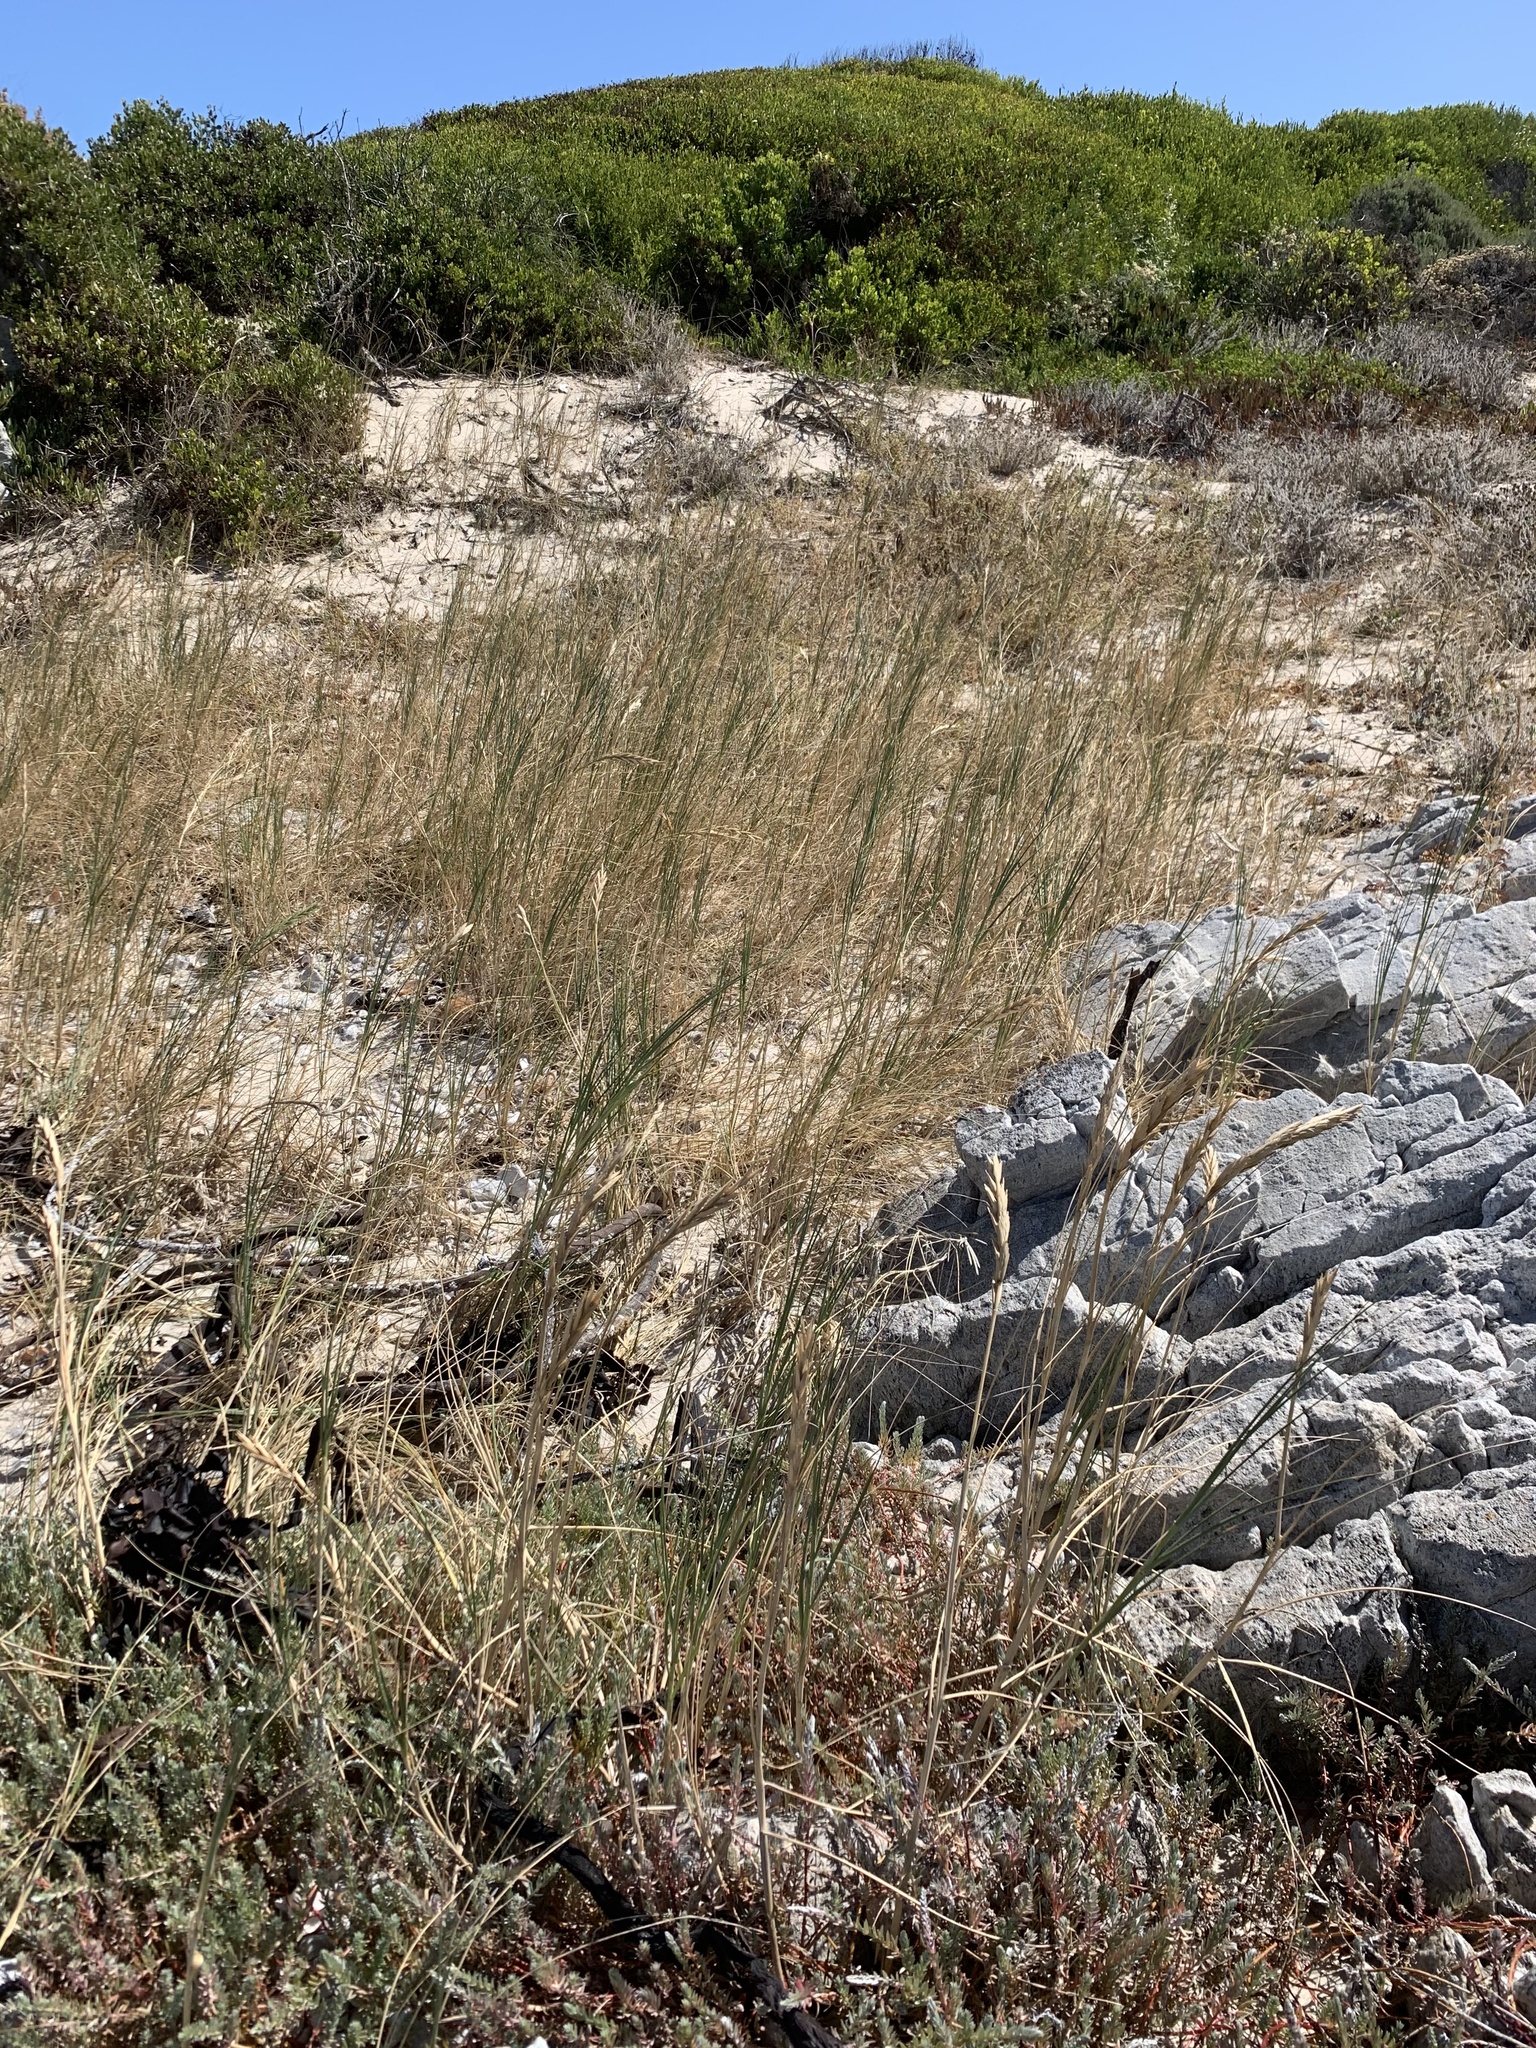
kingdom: Plantae
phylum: Tracheophyta
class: Liliopsida
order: Poales
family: Poaceae
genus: Thinopyrum
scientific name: Thinopyrum distichum
